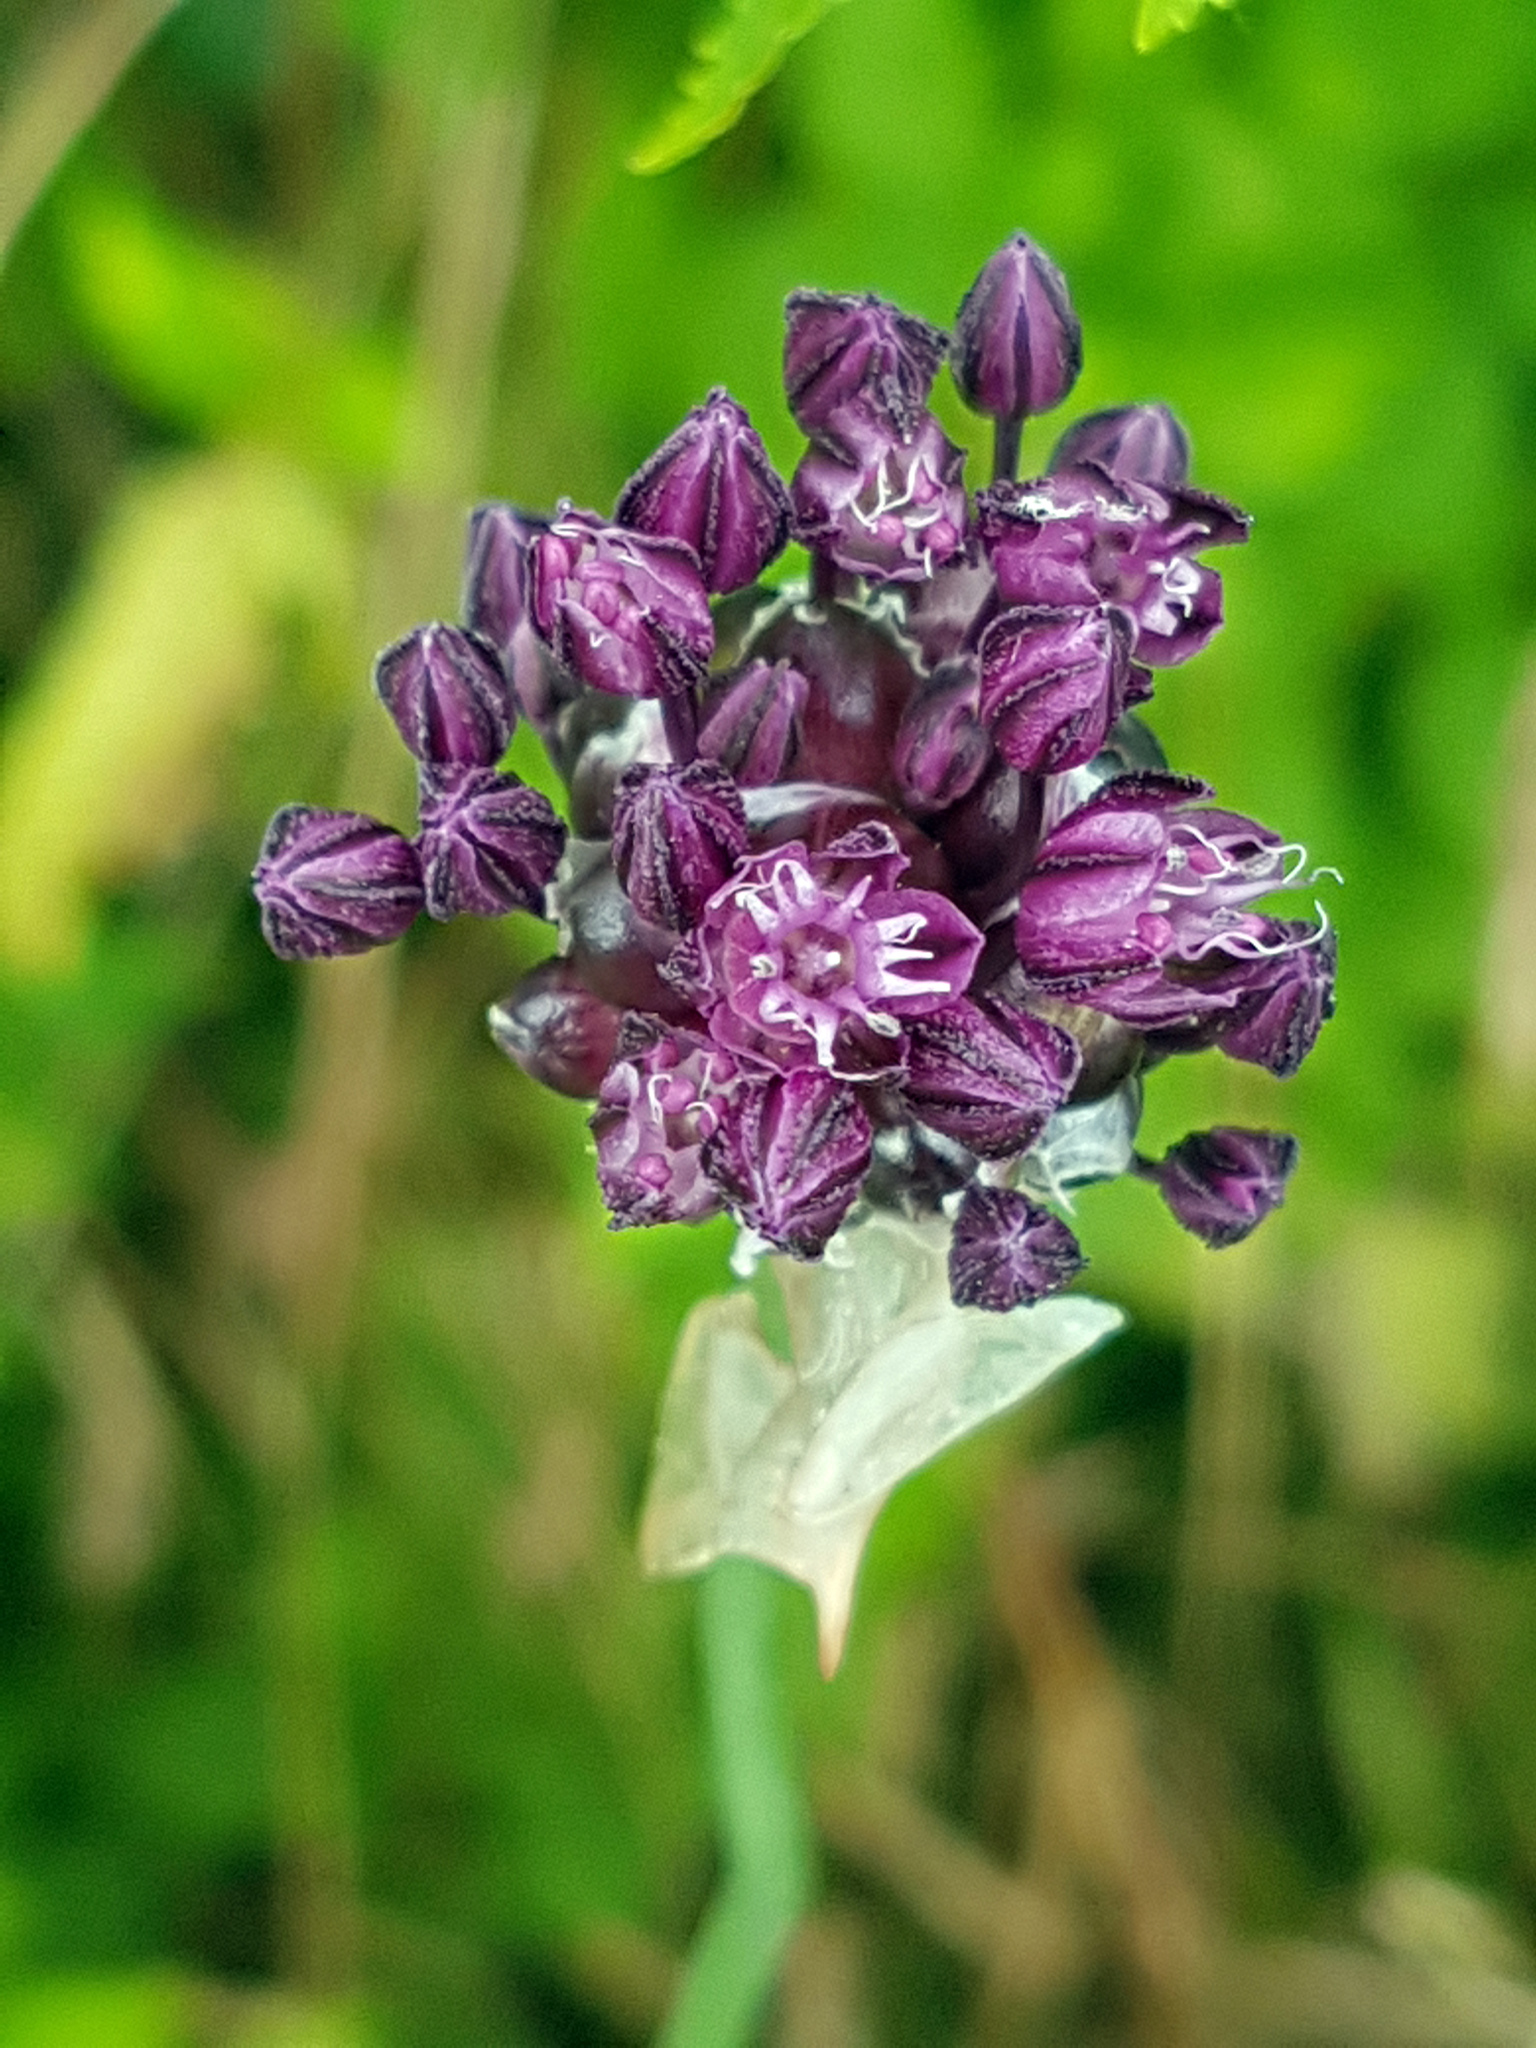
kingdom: Plantae
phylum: Tracheophyta
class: Liliopsida
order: Asparagales
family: Amaryllidaceae
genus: Allium
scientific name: Allium scorodoprasum
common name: Sand leek
